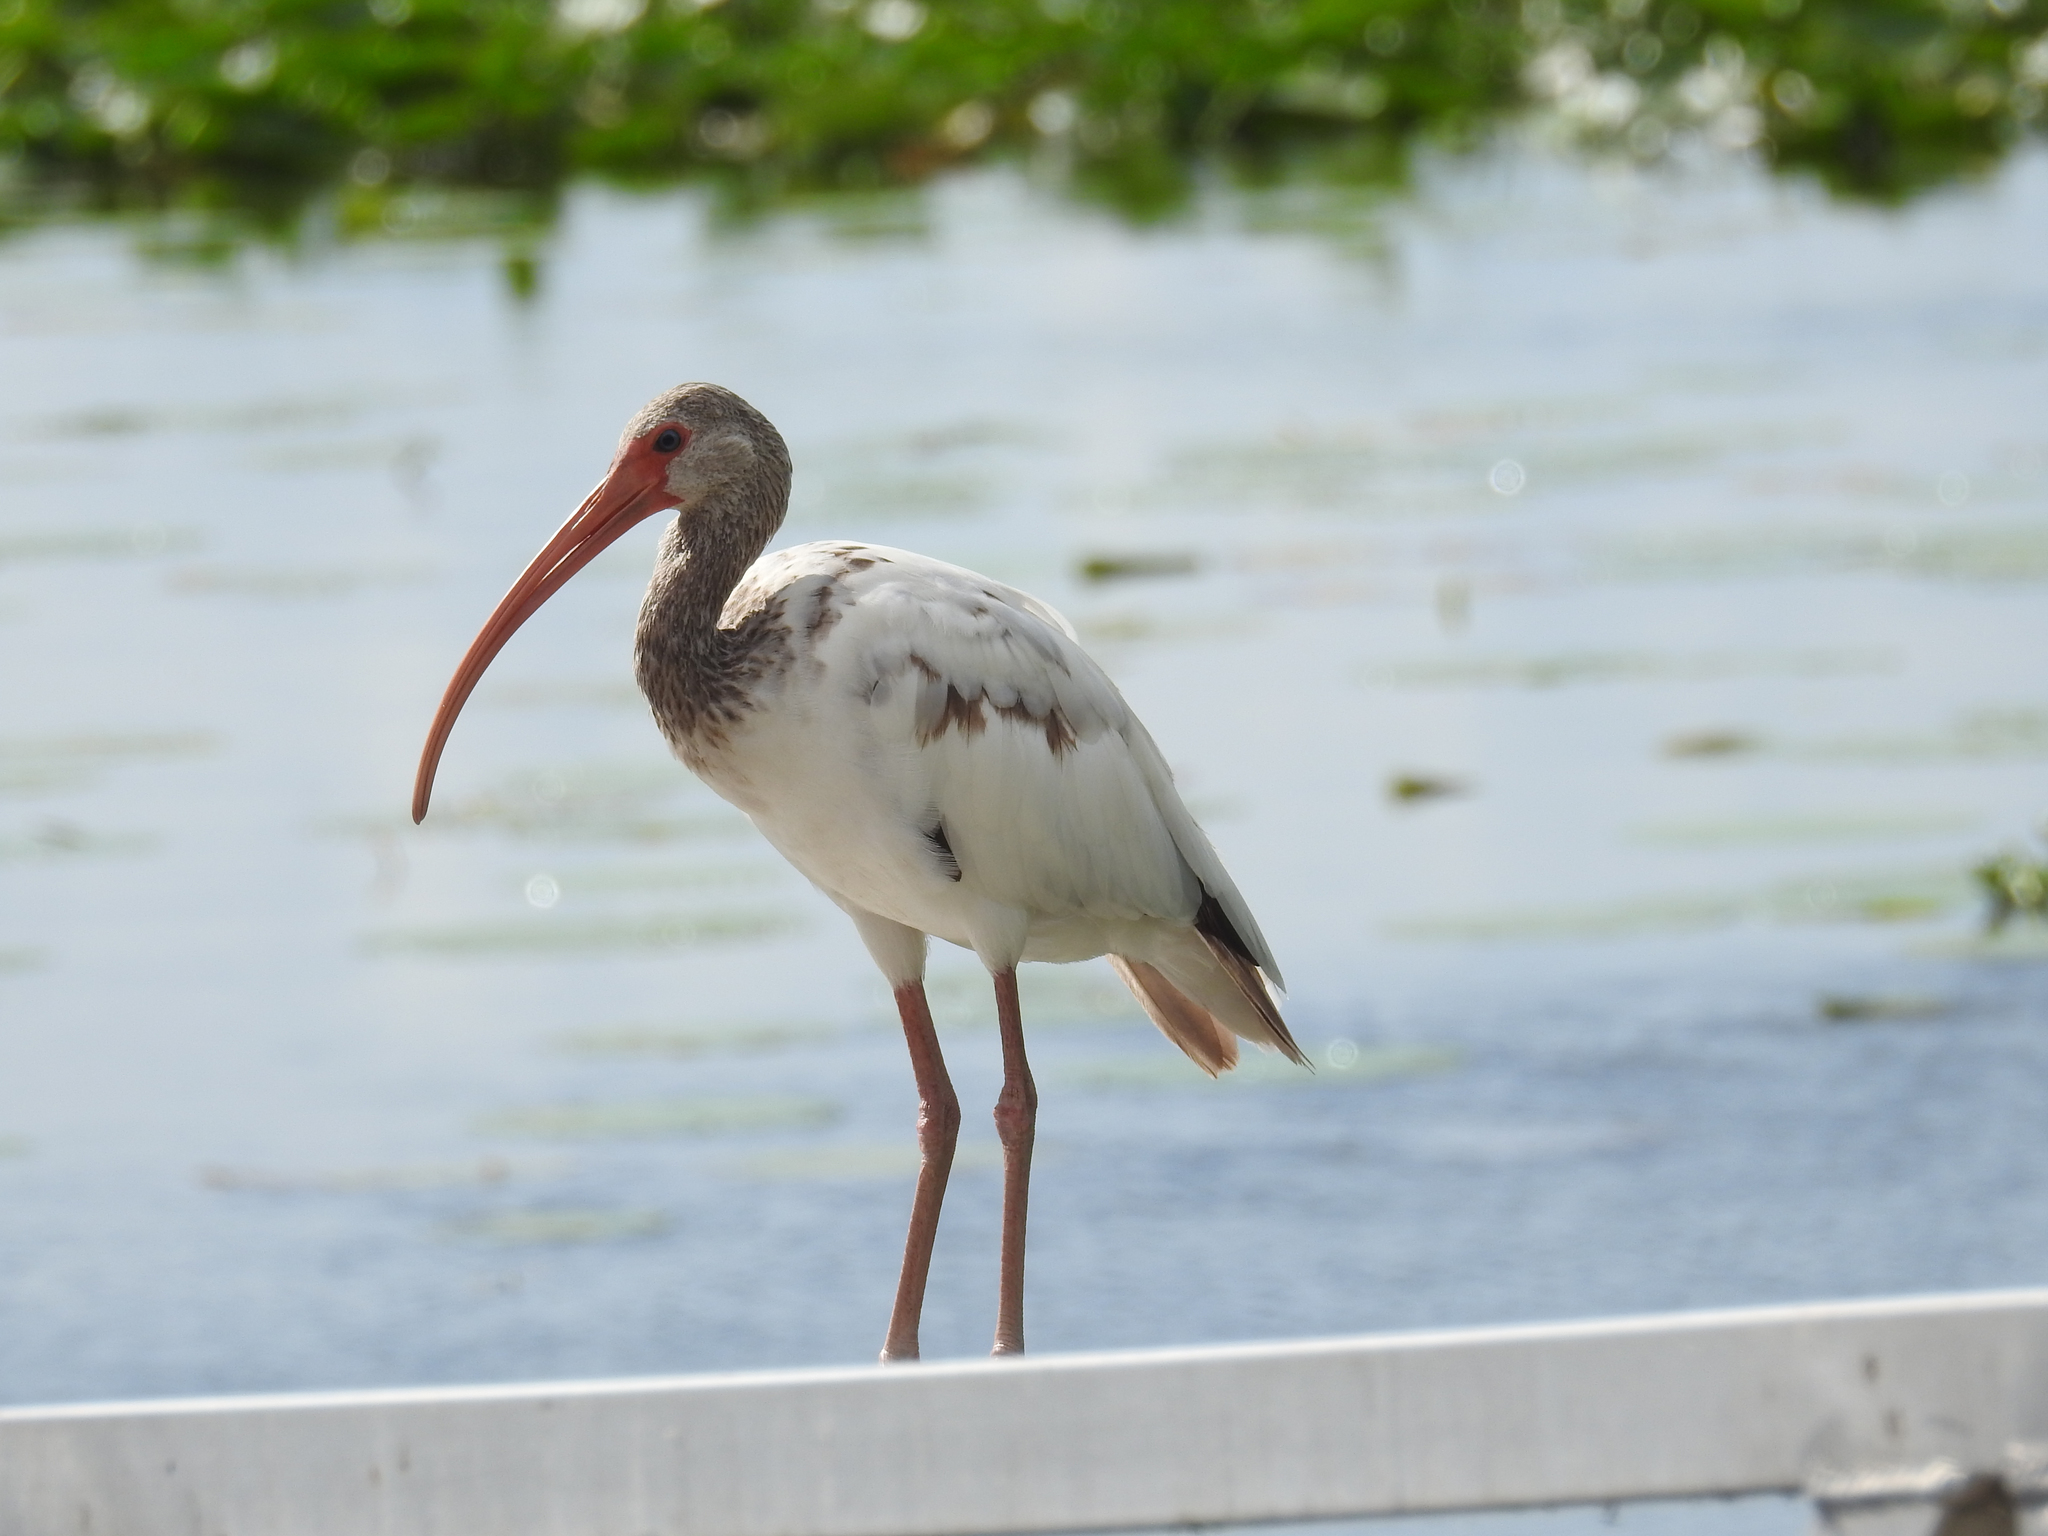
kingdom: Animalia
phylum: Chordata
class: Aves
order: Pelecaniformes
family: Threskiornithidae
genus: Eudocimus
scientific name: Eudocimus albus
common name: White ibis
